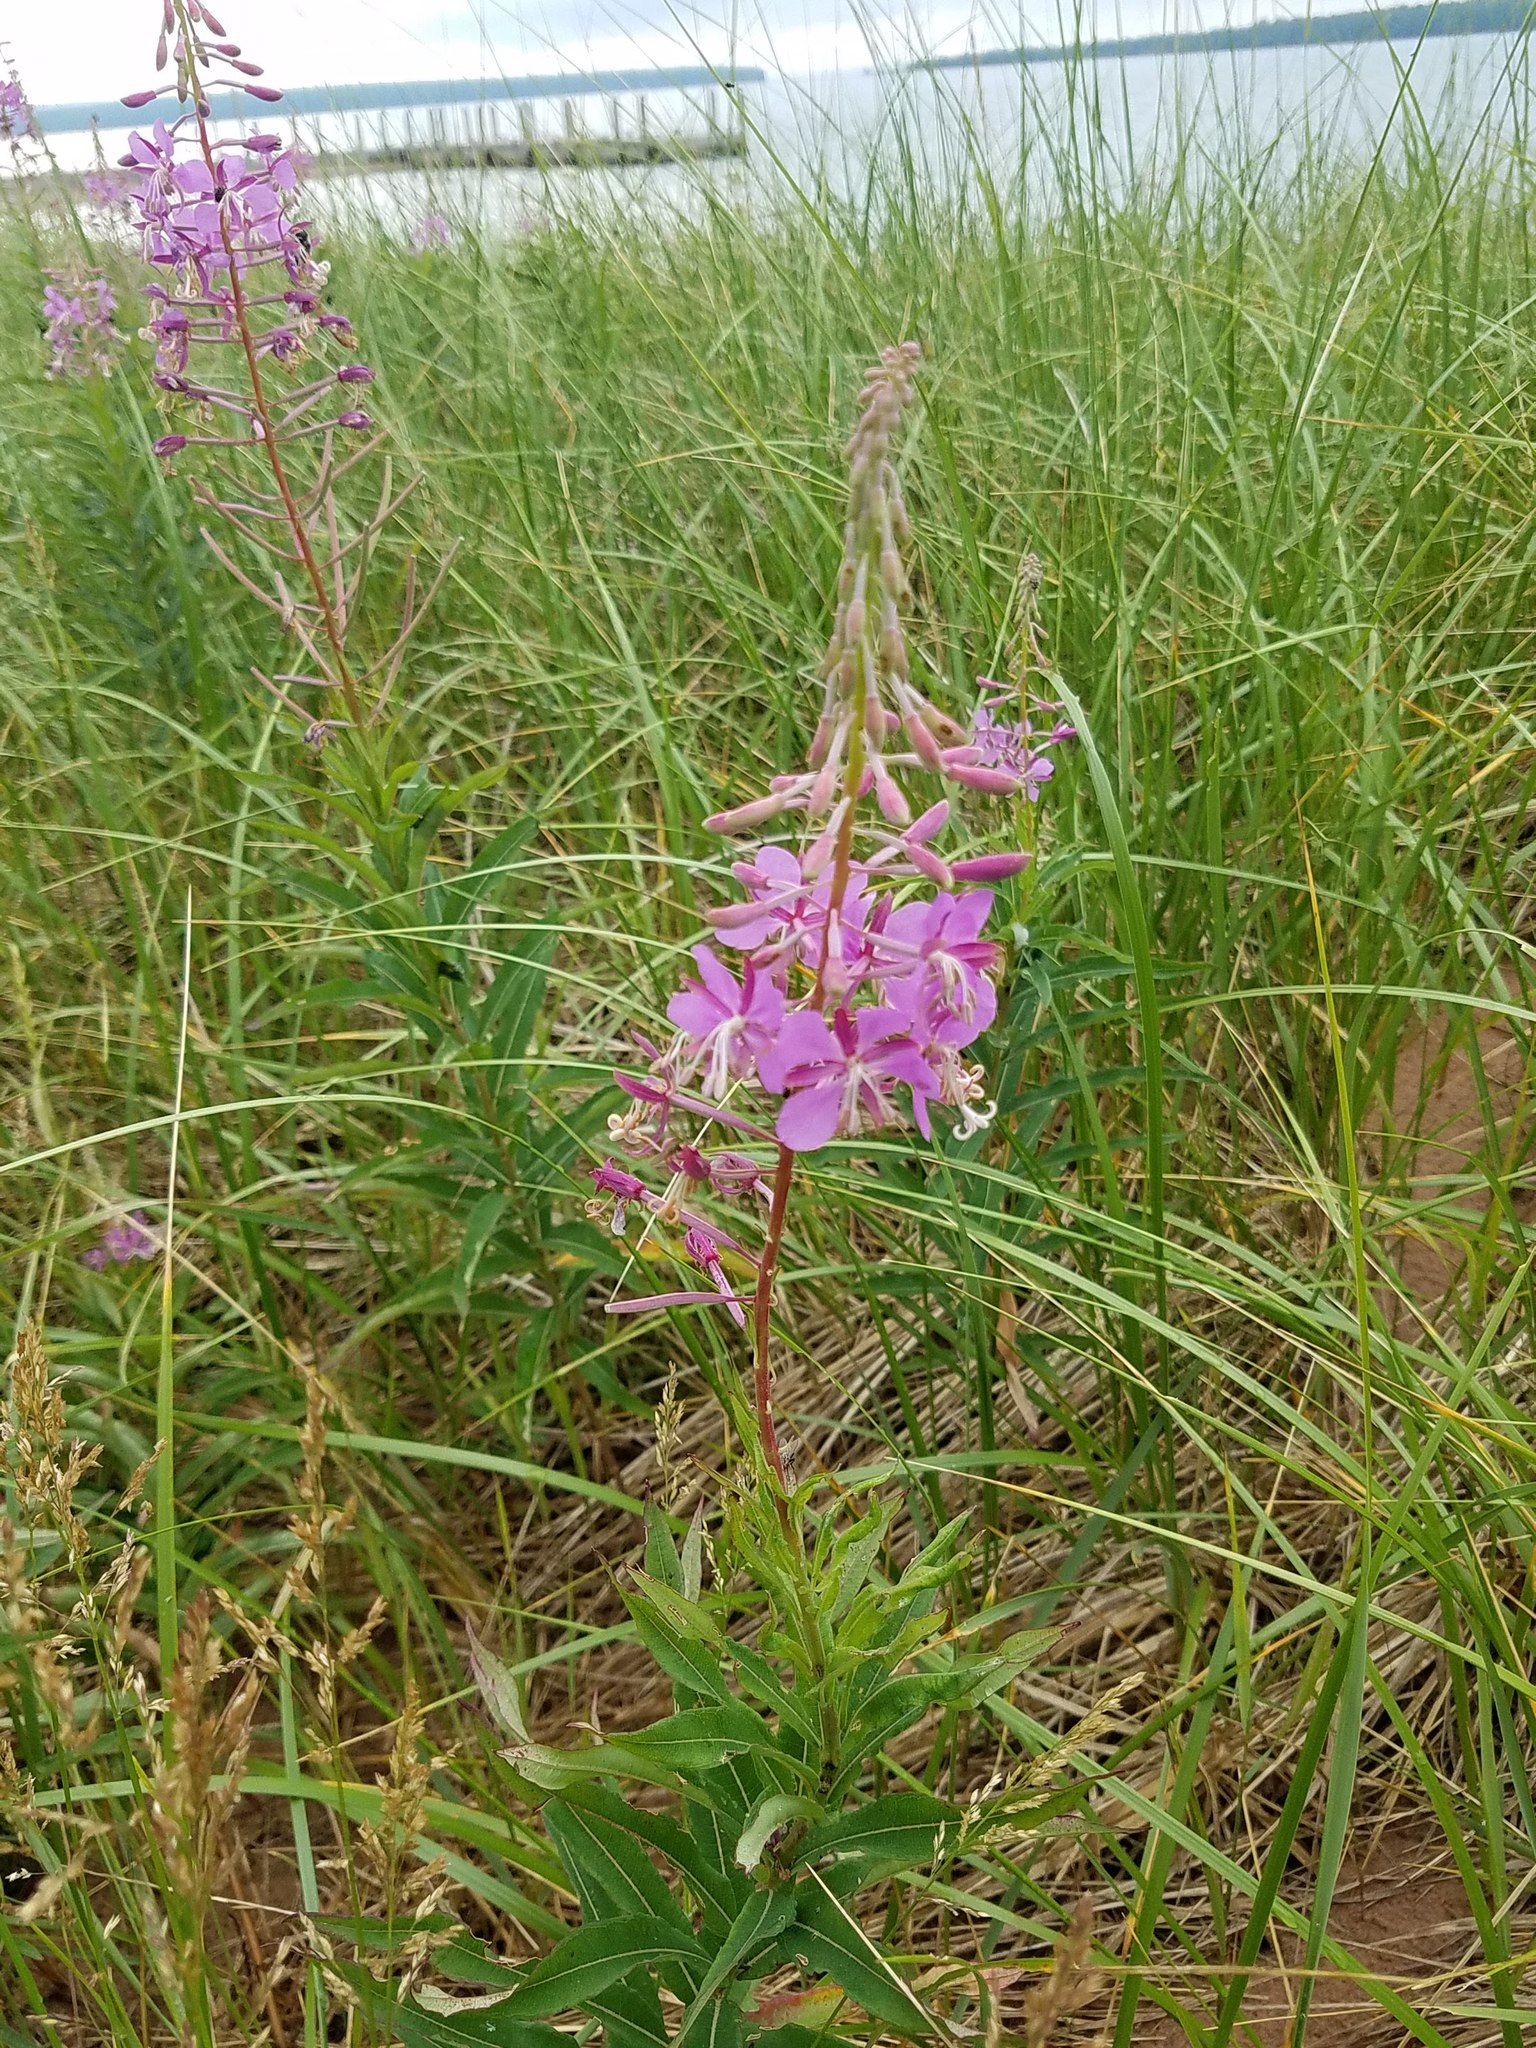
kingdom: Plantae
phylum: Tracheophyta
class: Magnoliopsida
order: Myrtales
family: Onagraceae
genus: Chamaenerion
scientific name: Chamaenerion angustifolium
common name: Fireweed
